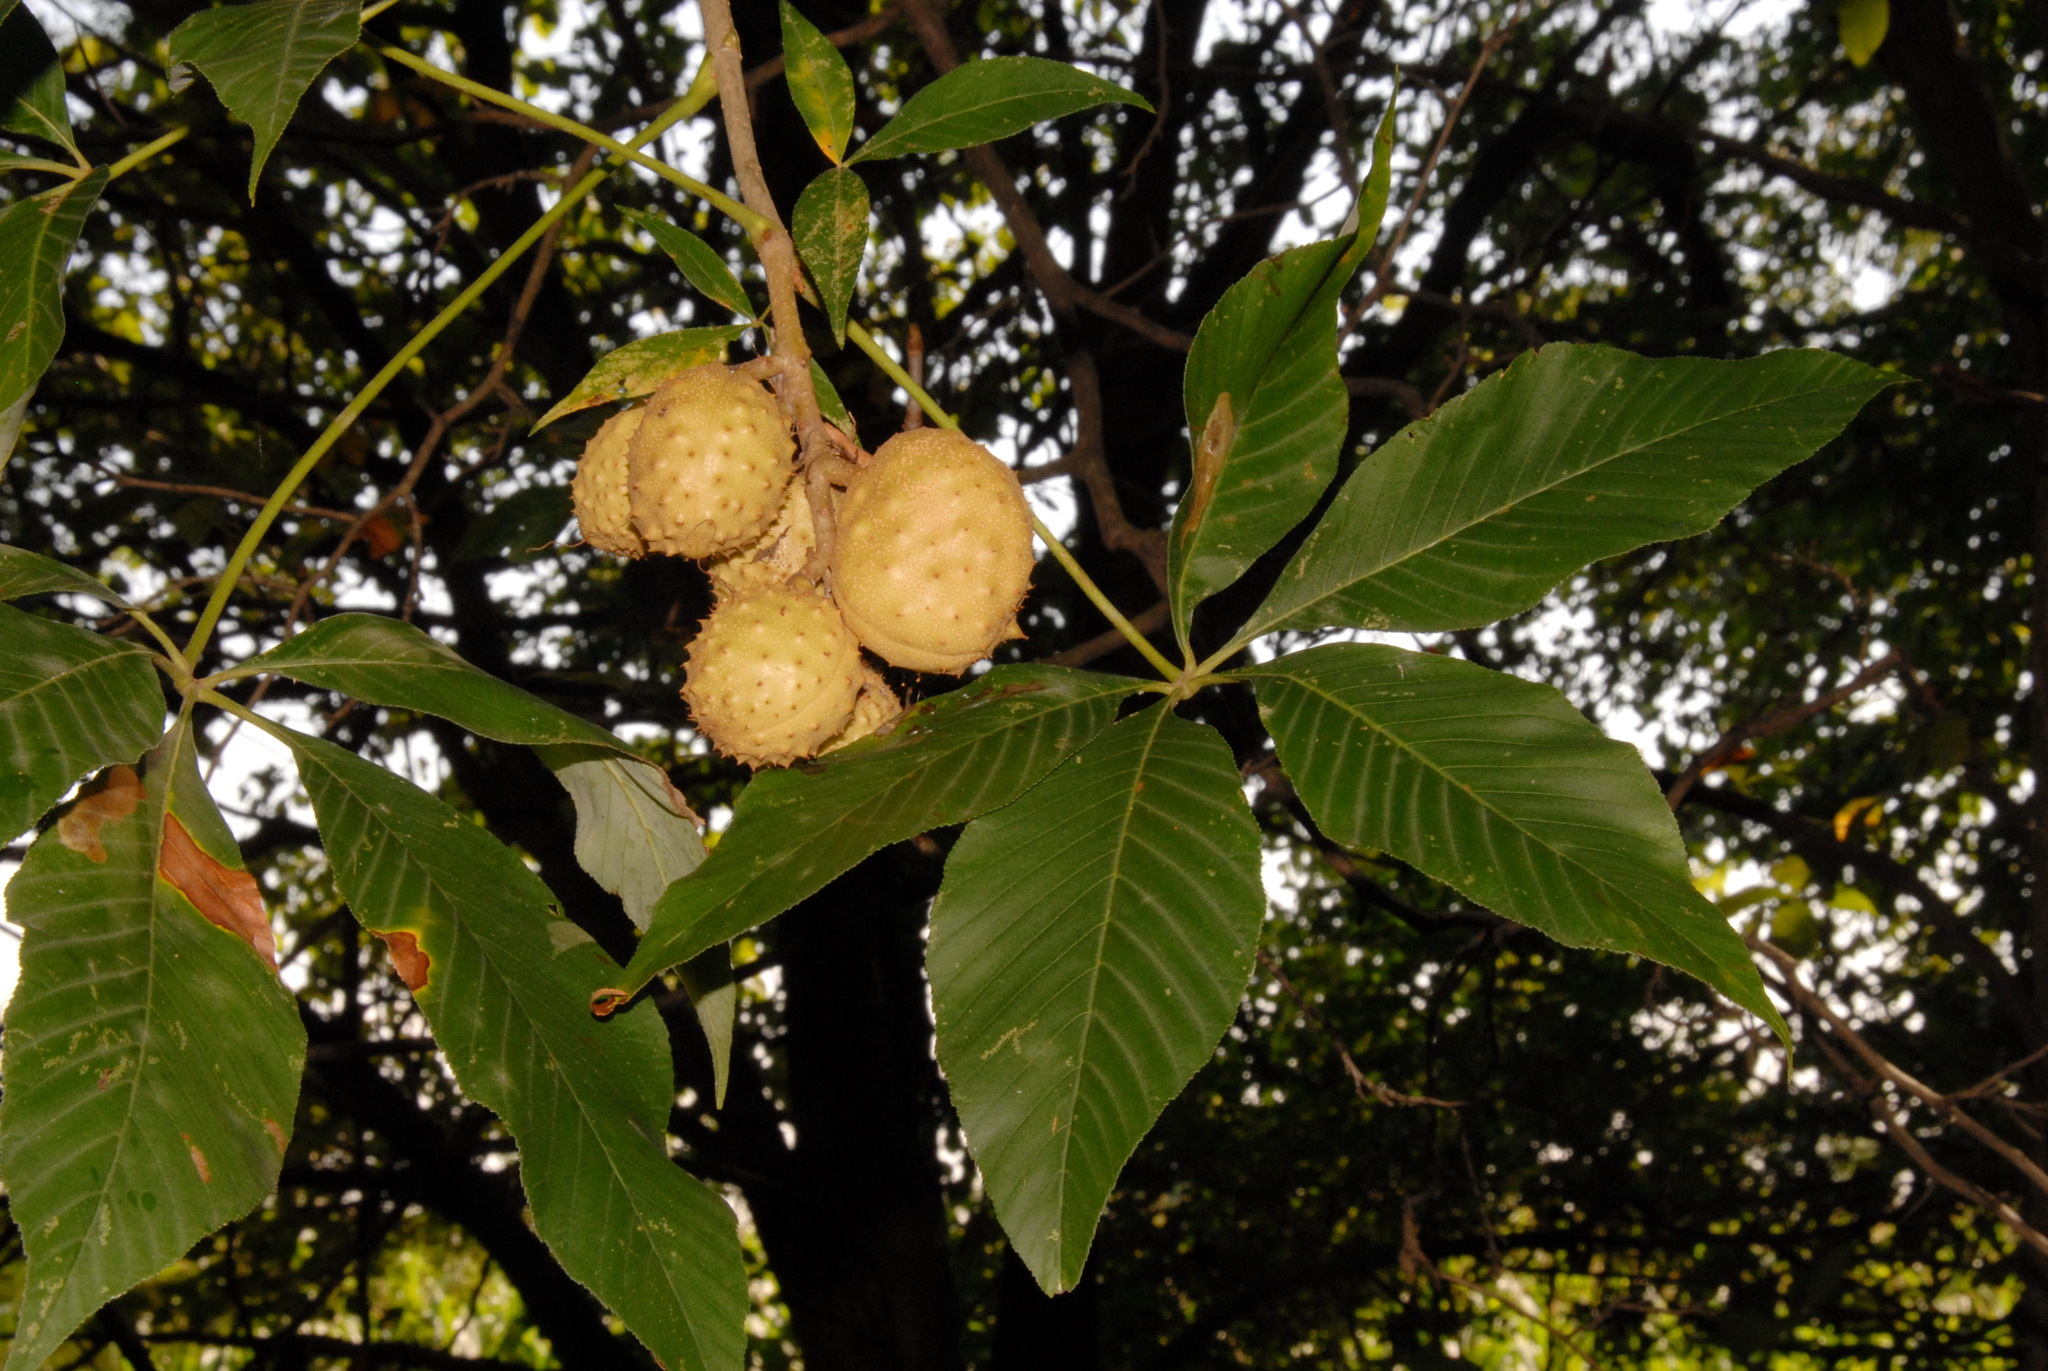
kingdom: Plantae
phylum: Tracheophyta
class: Magnoliopsida
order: Sapindales
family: Sapindaceae
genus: Aesculus
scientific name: Aesculus glabra
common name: Ohio buckeye
